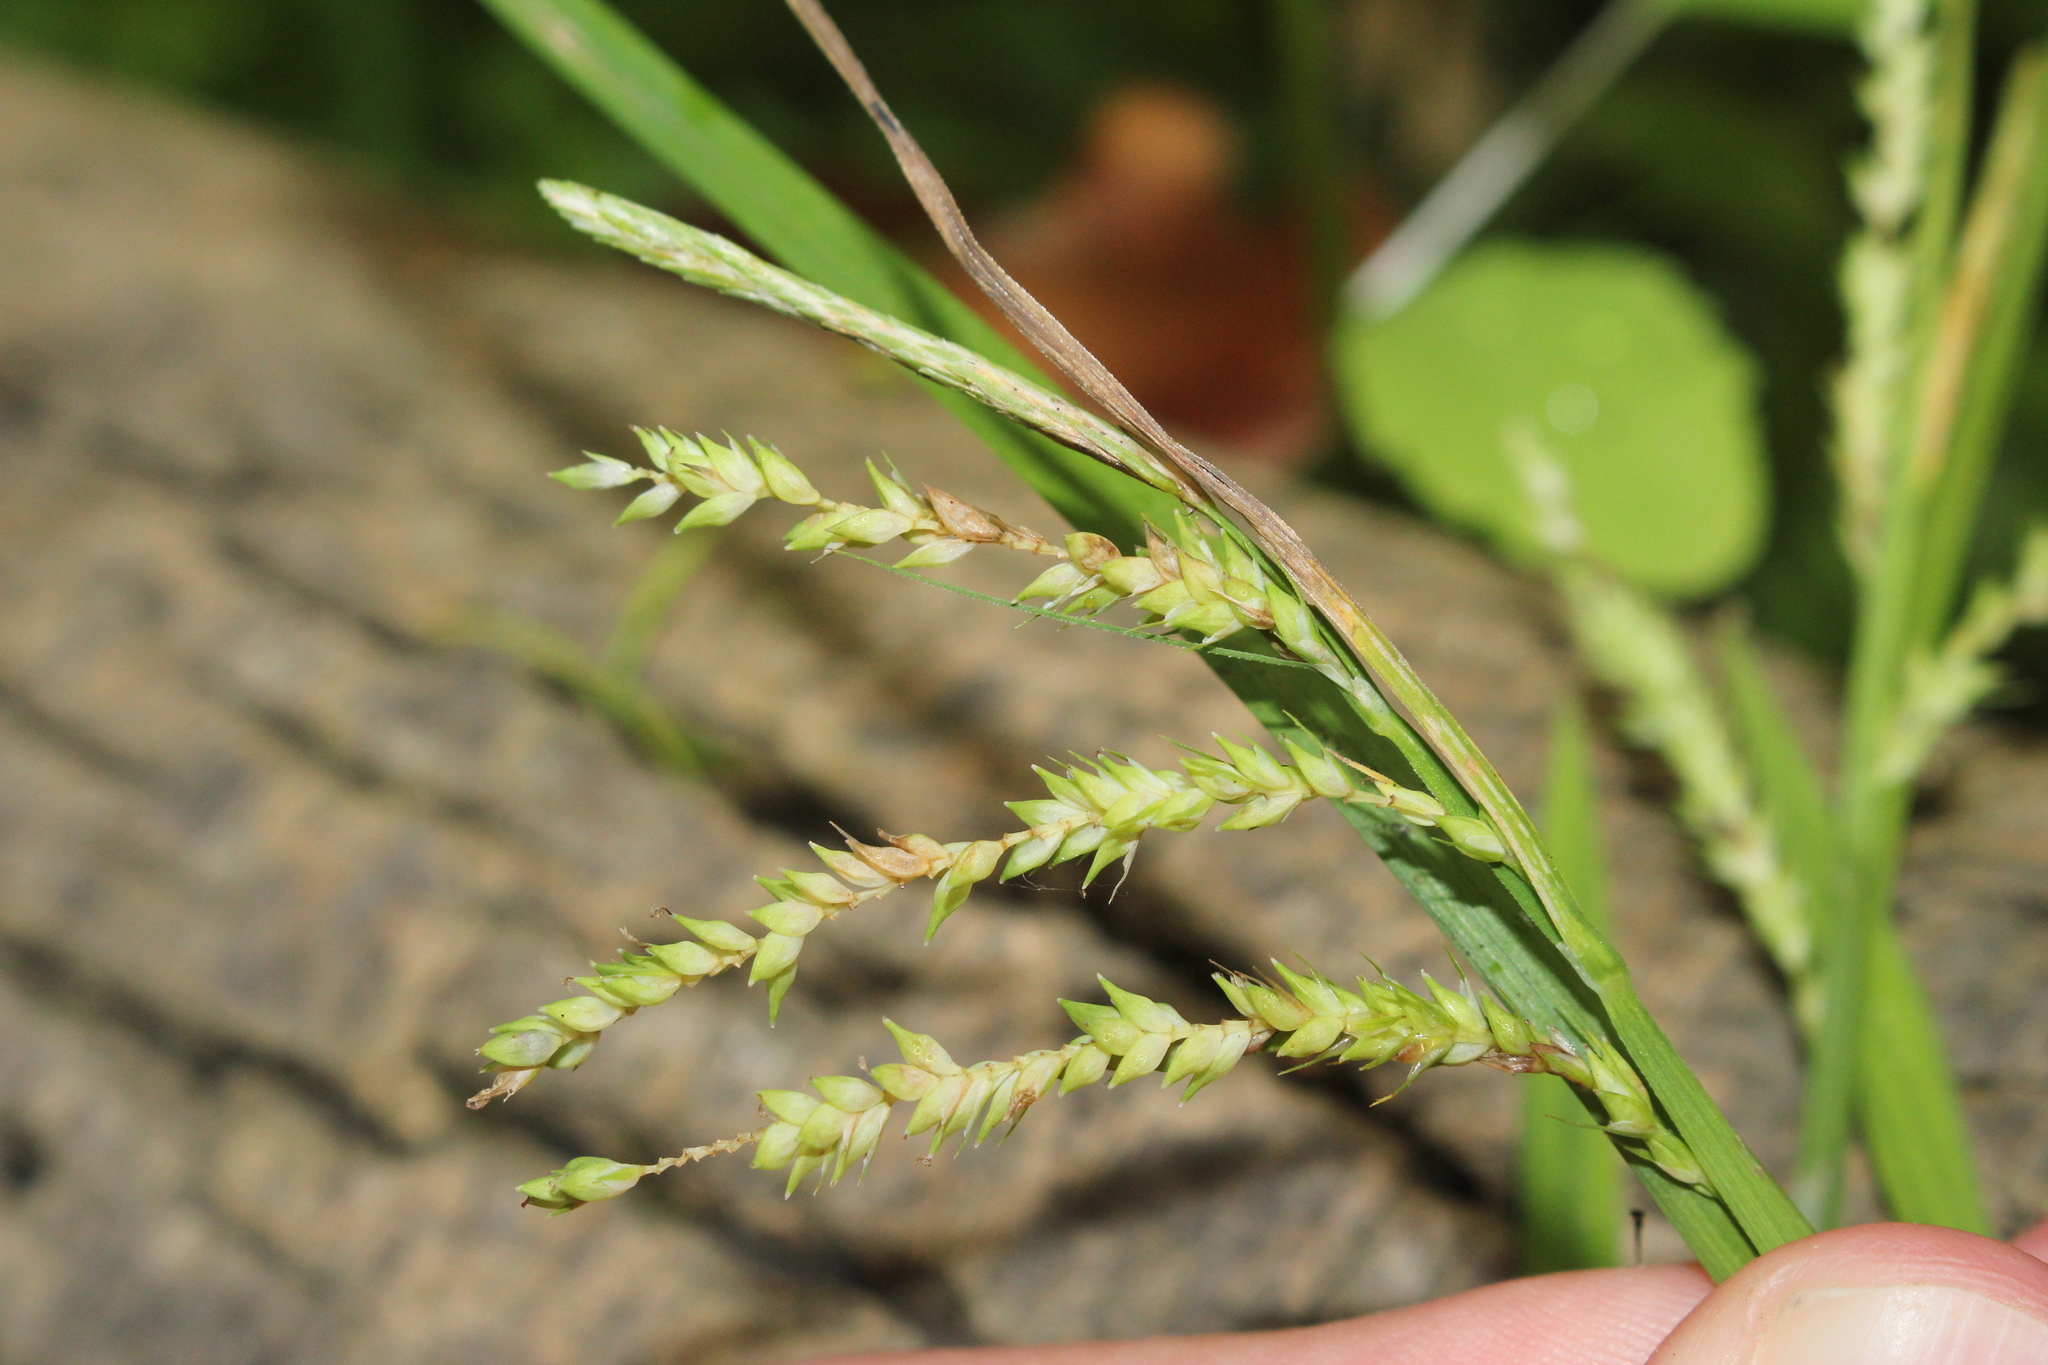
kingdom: Plantae
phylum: Tracheophyta
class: Liliopsida
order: Poales
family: Cyperaceae
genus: Carex
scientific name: Carex prasina
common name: Drooping sedge
